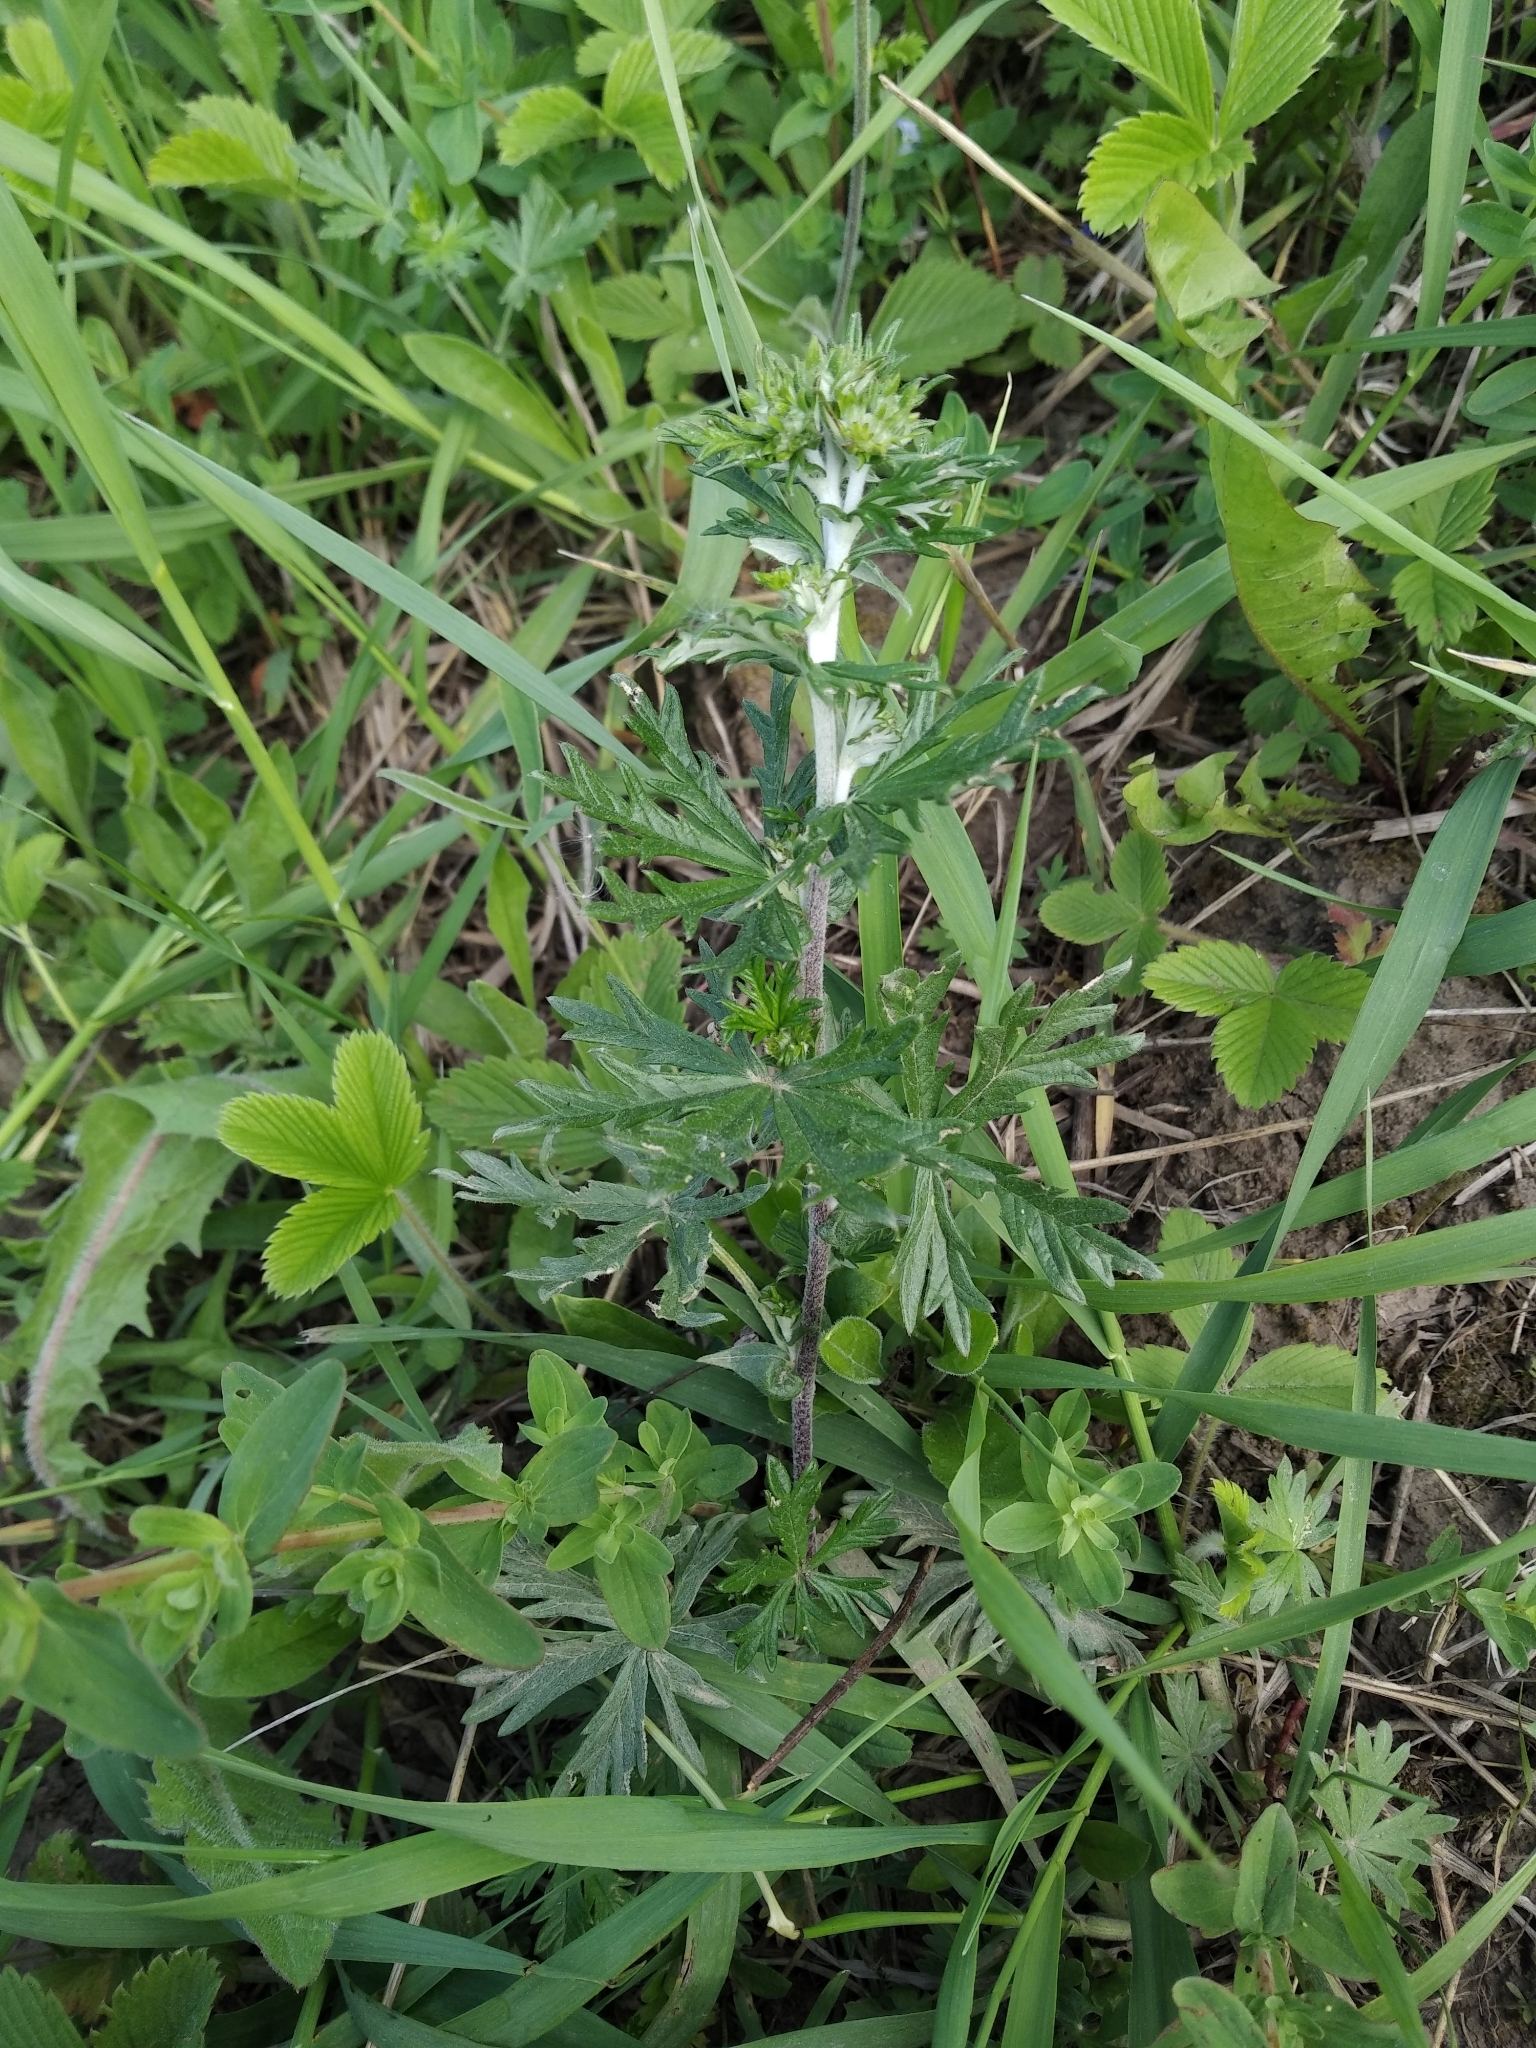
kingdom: Plantae
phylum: Tracheophyta
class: Magnoliopsida
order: Rosales
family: Rosaceae
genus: Potentilla
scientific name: Potentilla argentea
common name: Hoary cinquefoil
